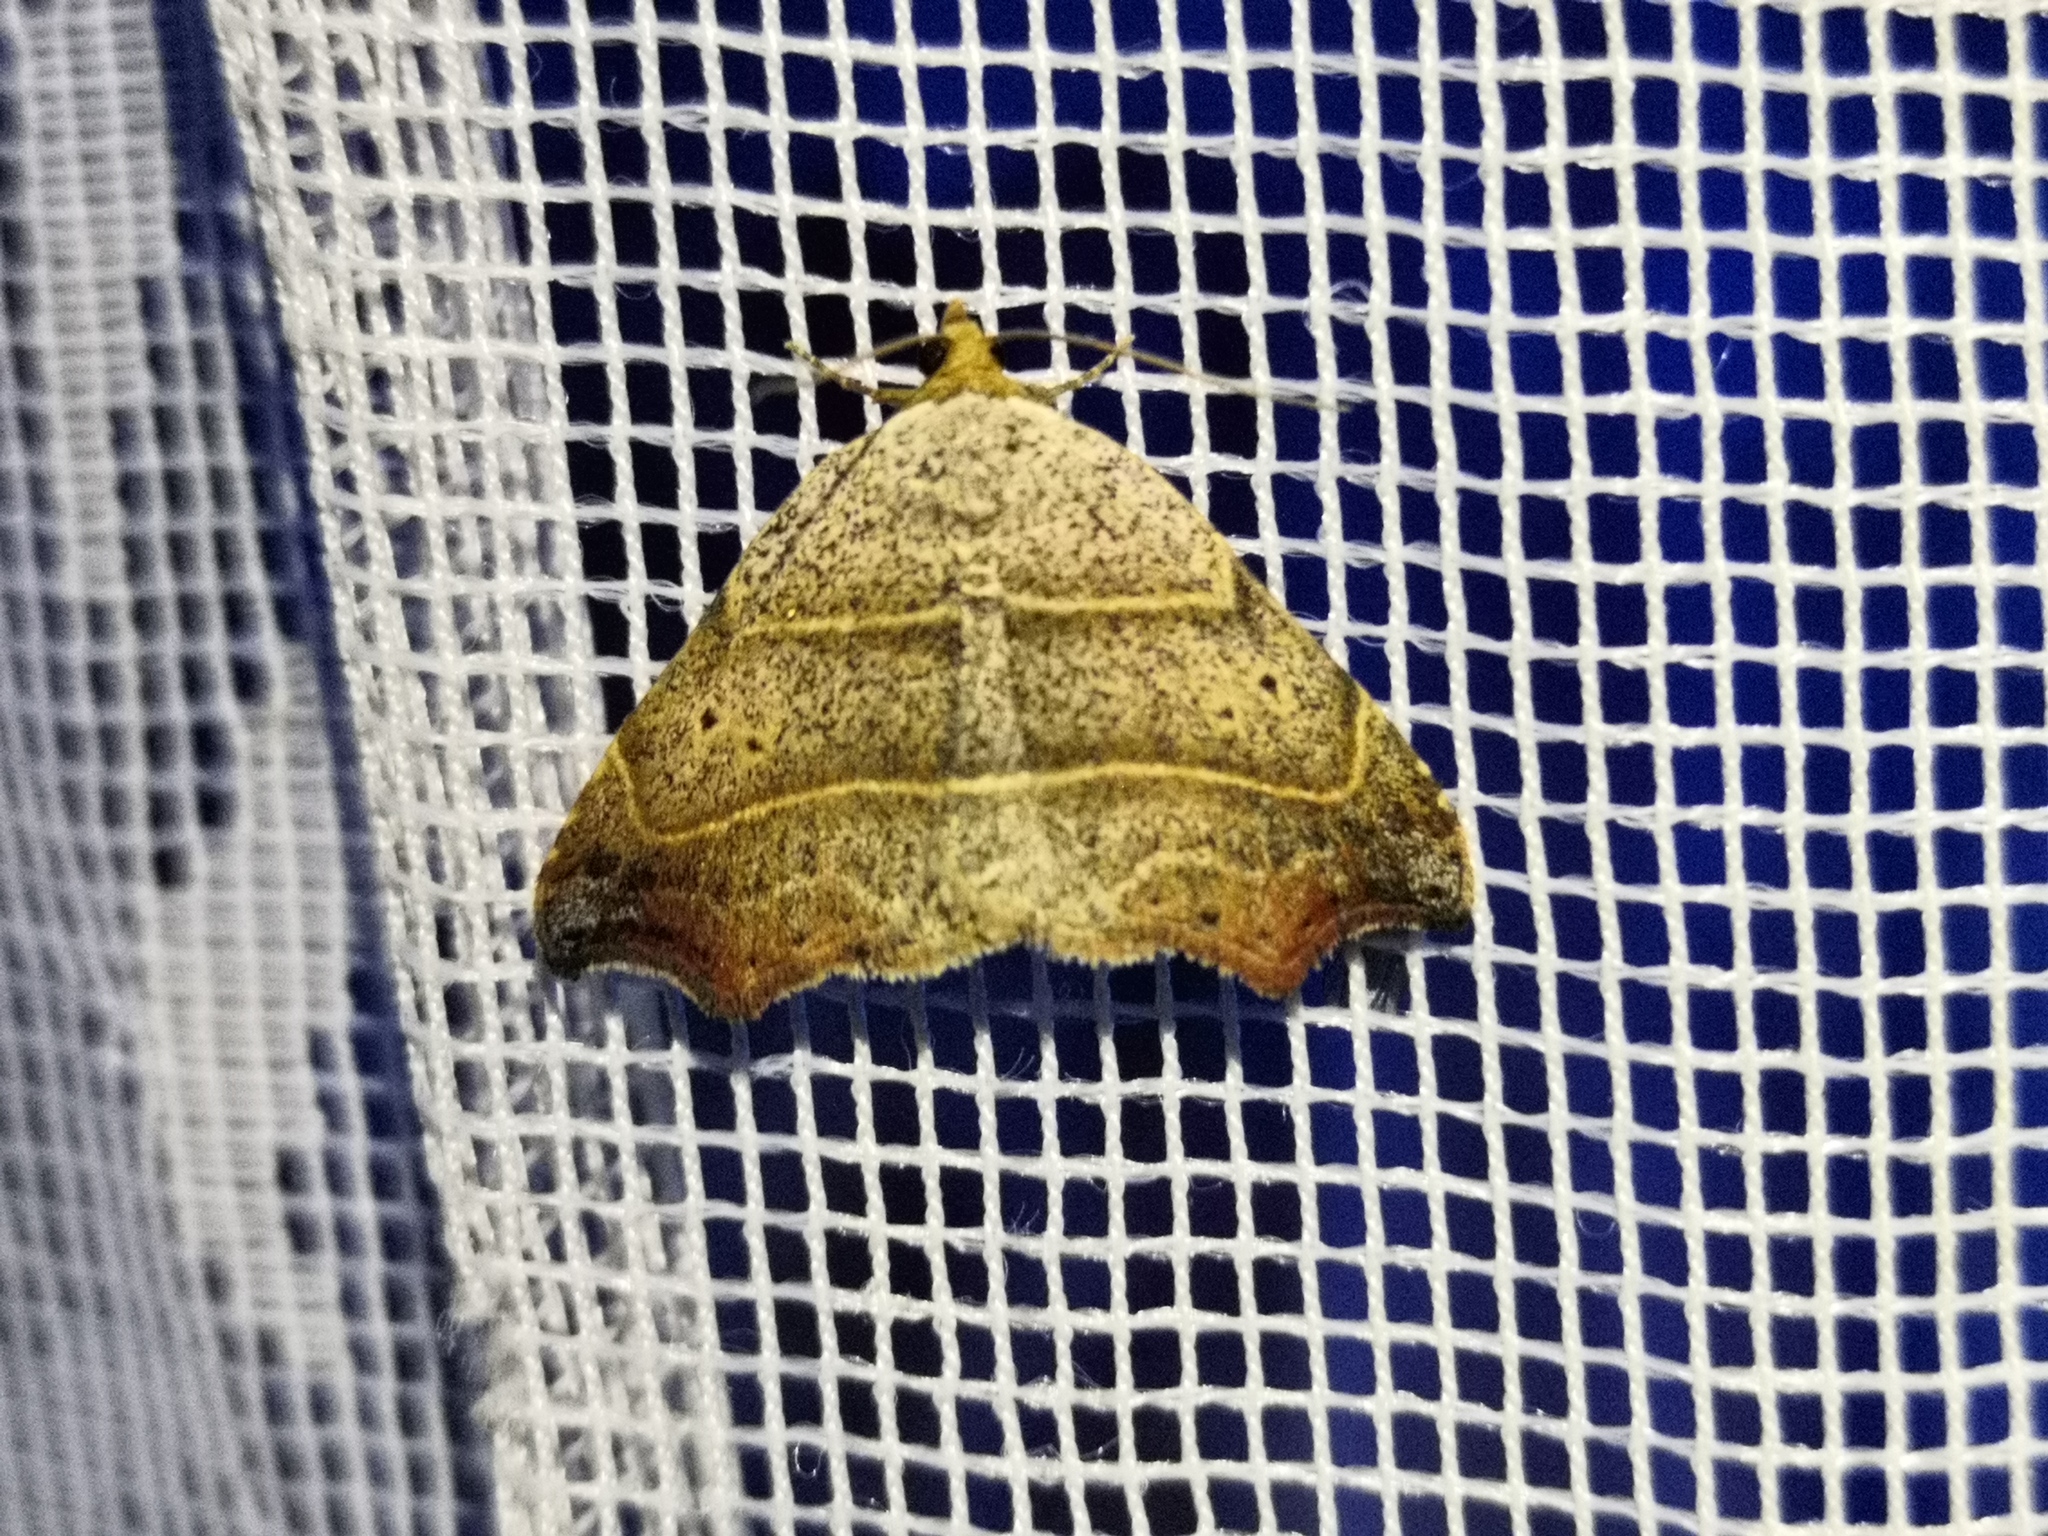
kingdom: Animalia
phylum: Arthropoda
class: Insecta
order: Lepidoptera
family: Erebidae
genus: Laspeyria
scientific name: Laspeyria flexula
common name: Beautiful hook-tip
